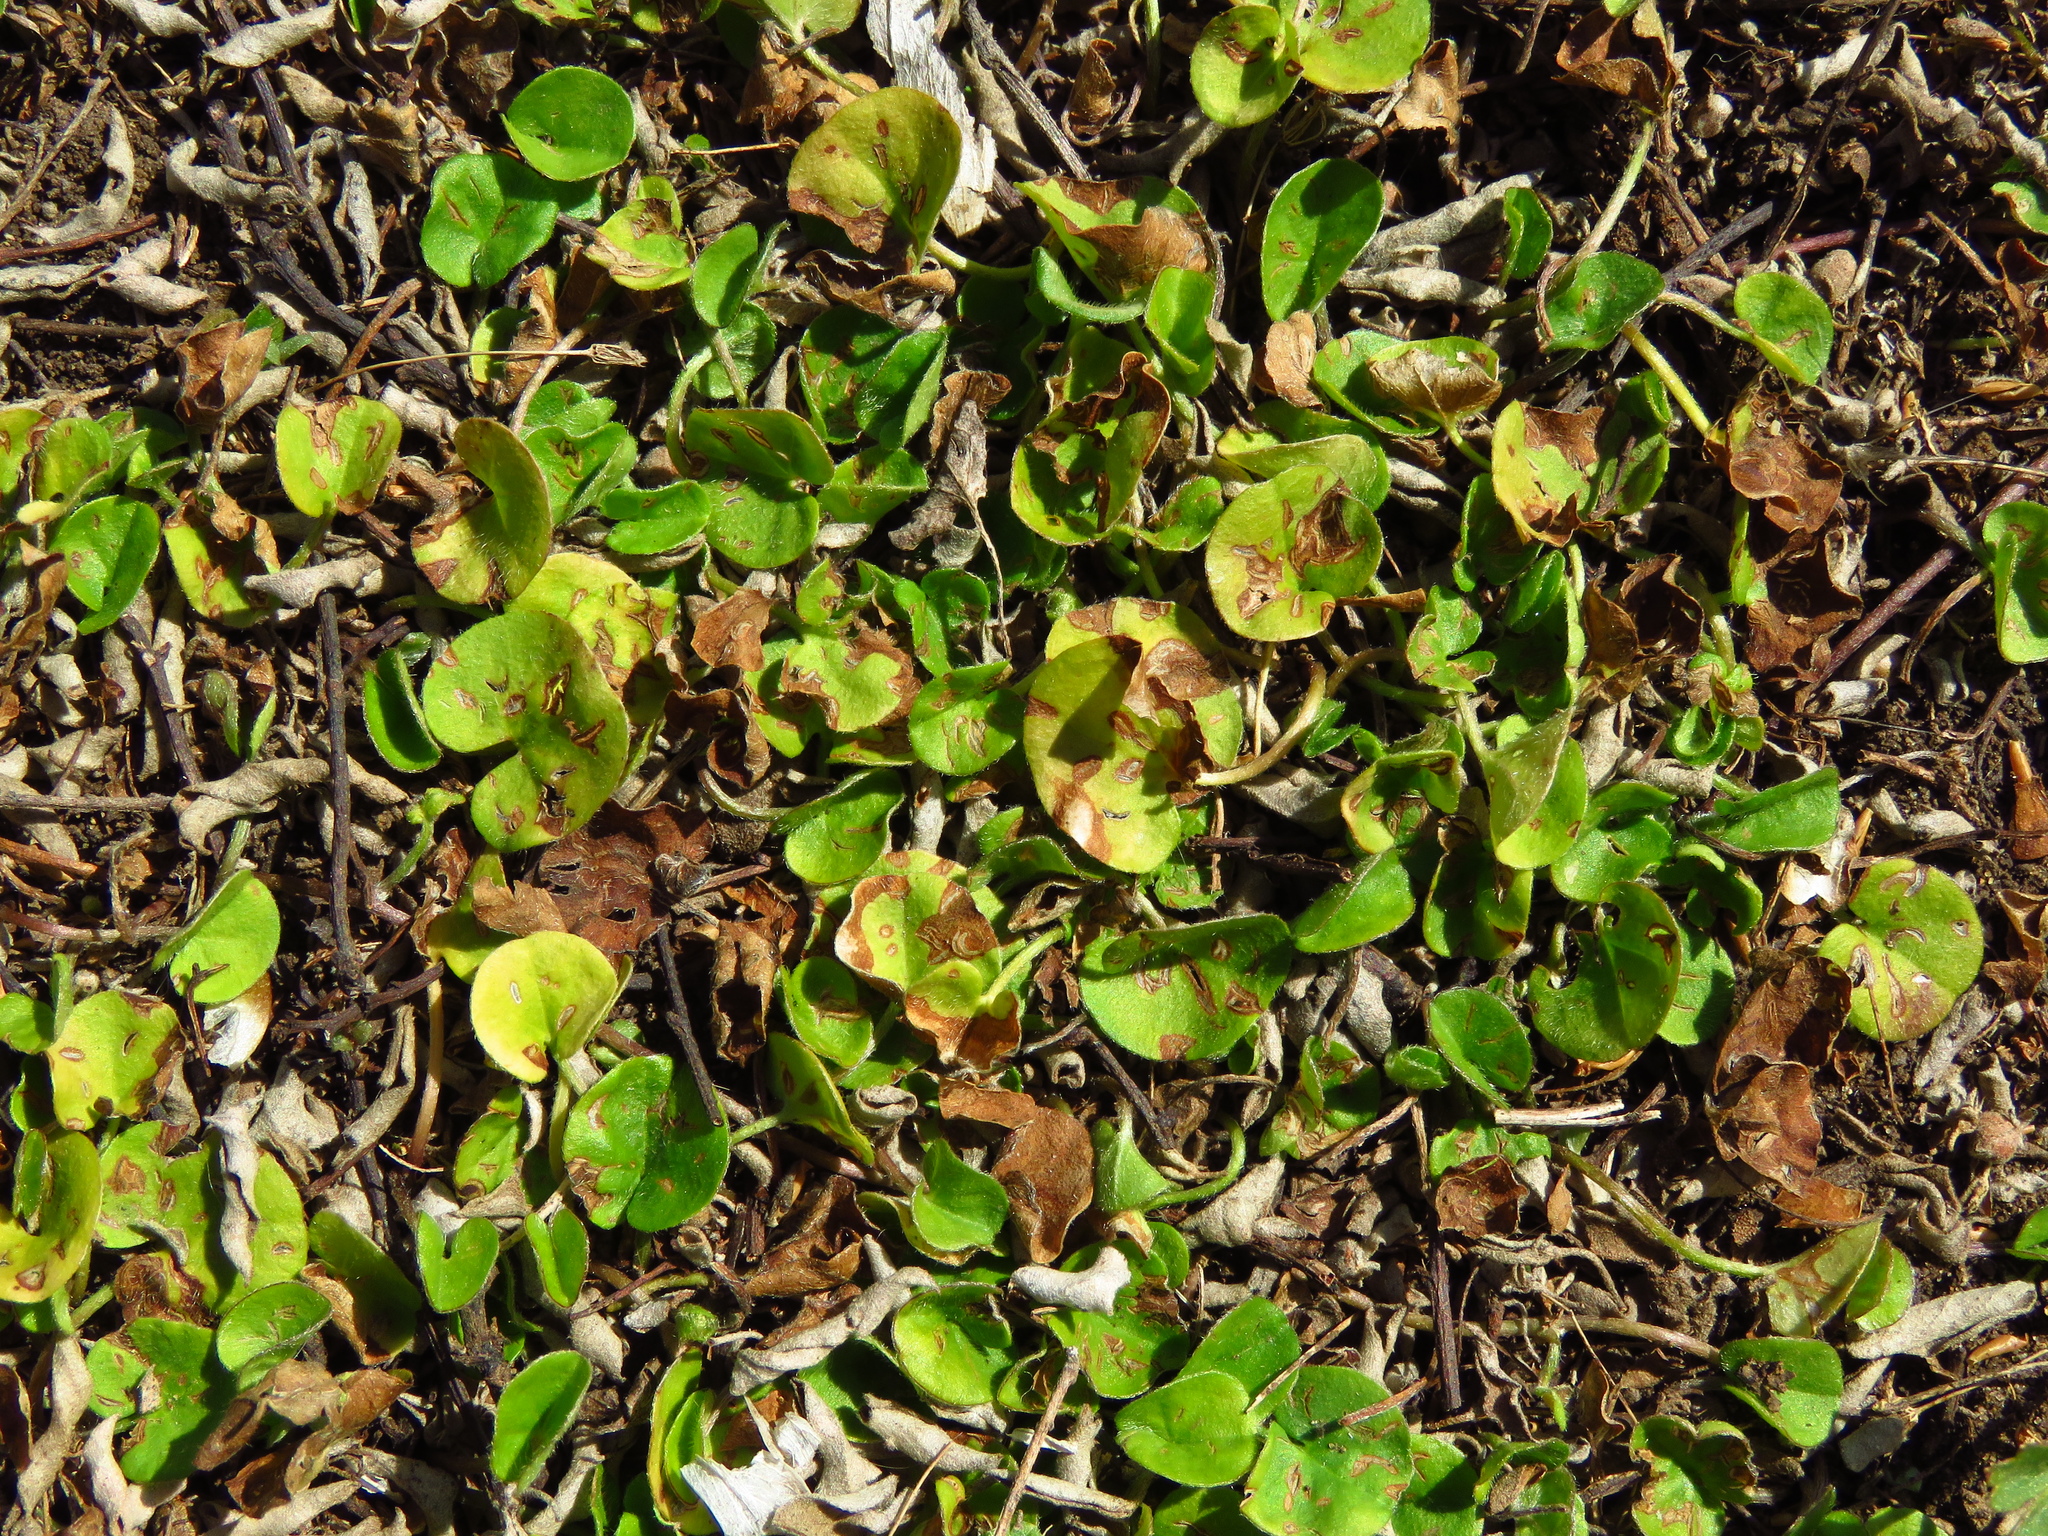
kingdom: Plantae
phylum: Tracheophyta
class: Magnoliopsida
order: Solanales
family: Convolvulaceae
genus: Dichondra
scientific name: Dichondra carolinensis
